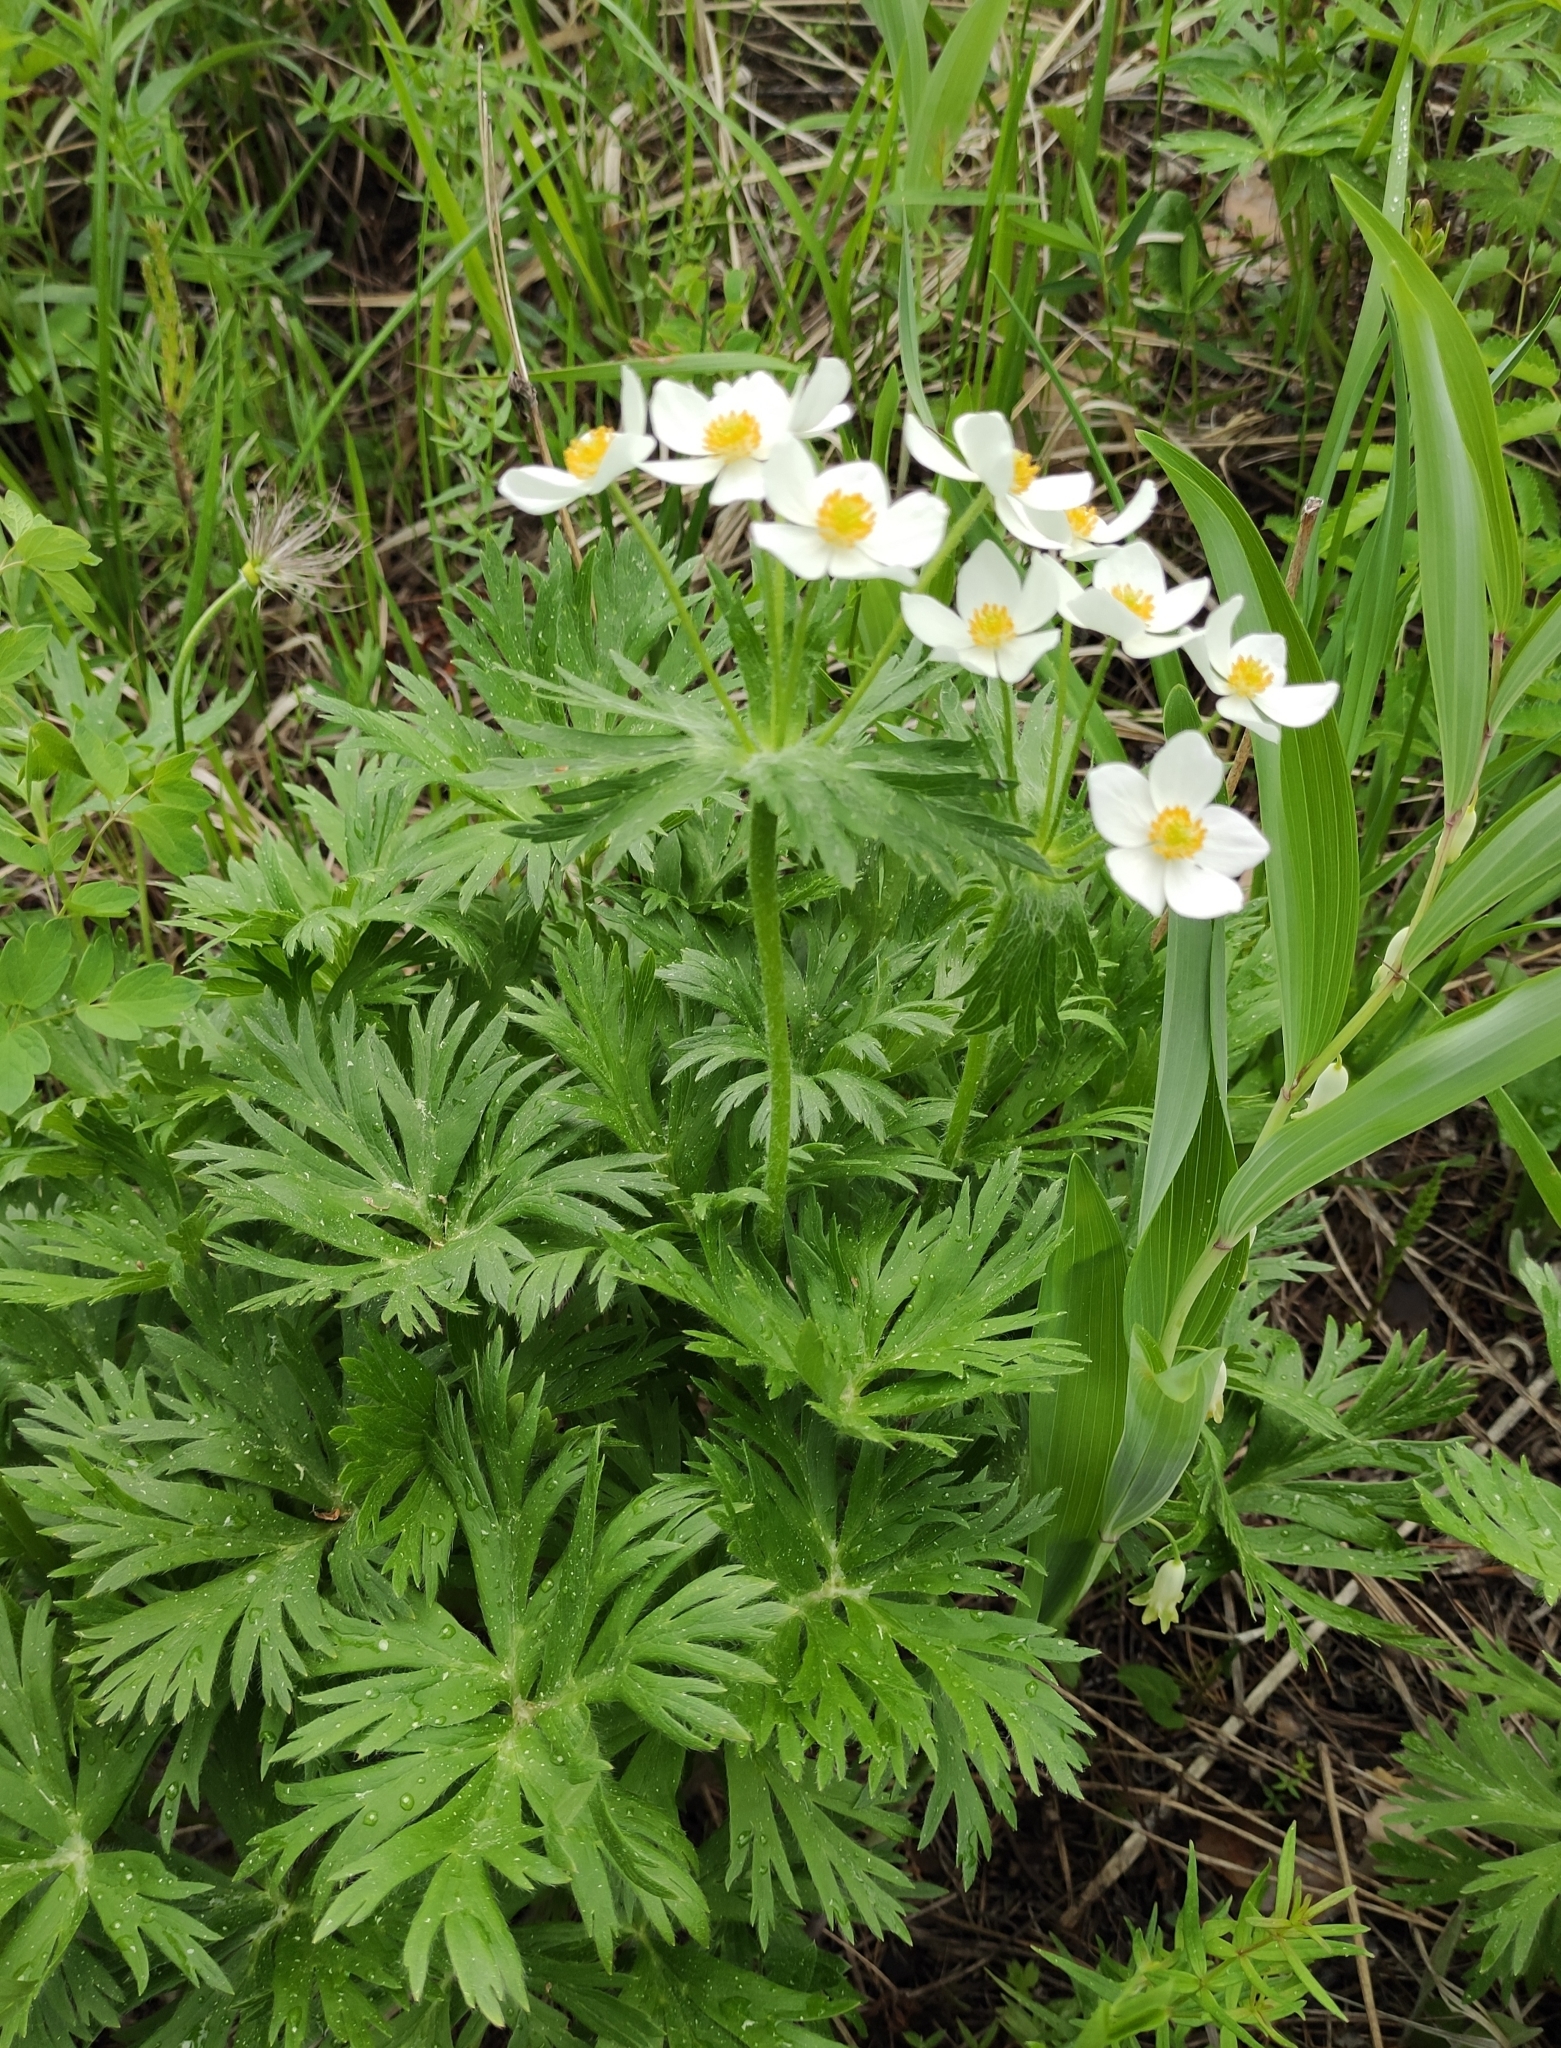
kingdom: Plantae
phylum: Tracheophyta
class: Magnoliopsida
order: Ranunculales
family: Ranunculaceae
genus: Anemonastrum
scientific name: Anemonastrum narcissiflorum
